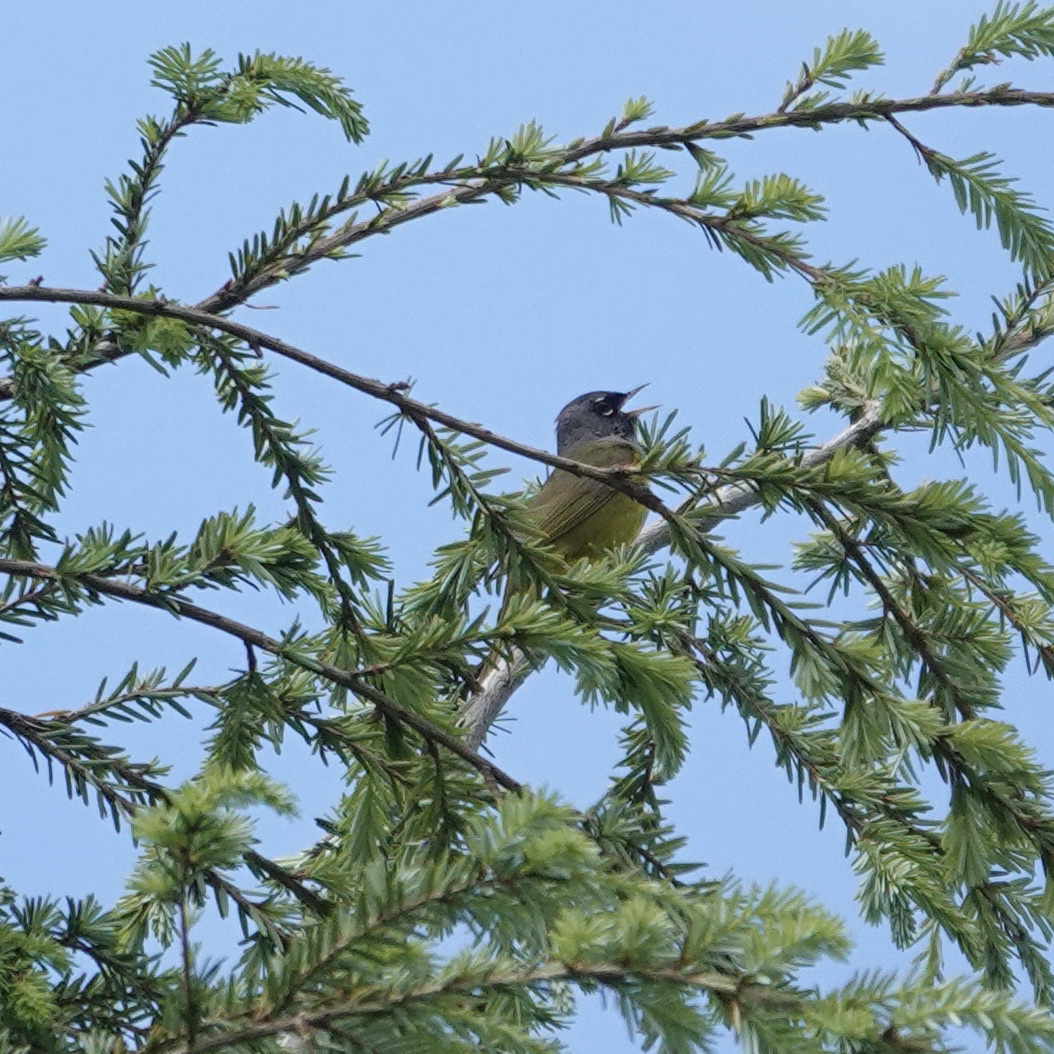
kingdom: Animalia
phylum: Chordata
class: Aves
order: Passeriformes
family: Parulidae
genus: Geothlypis
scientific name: Geothlypis tolmiei
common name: Macgillivray's warbler
